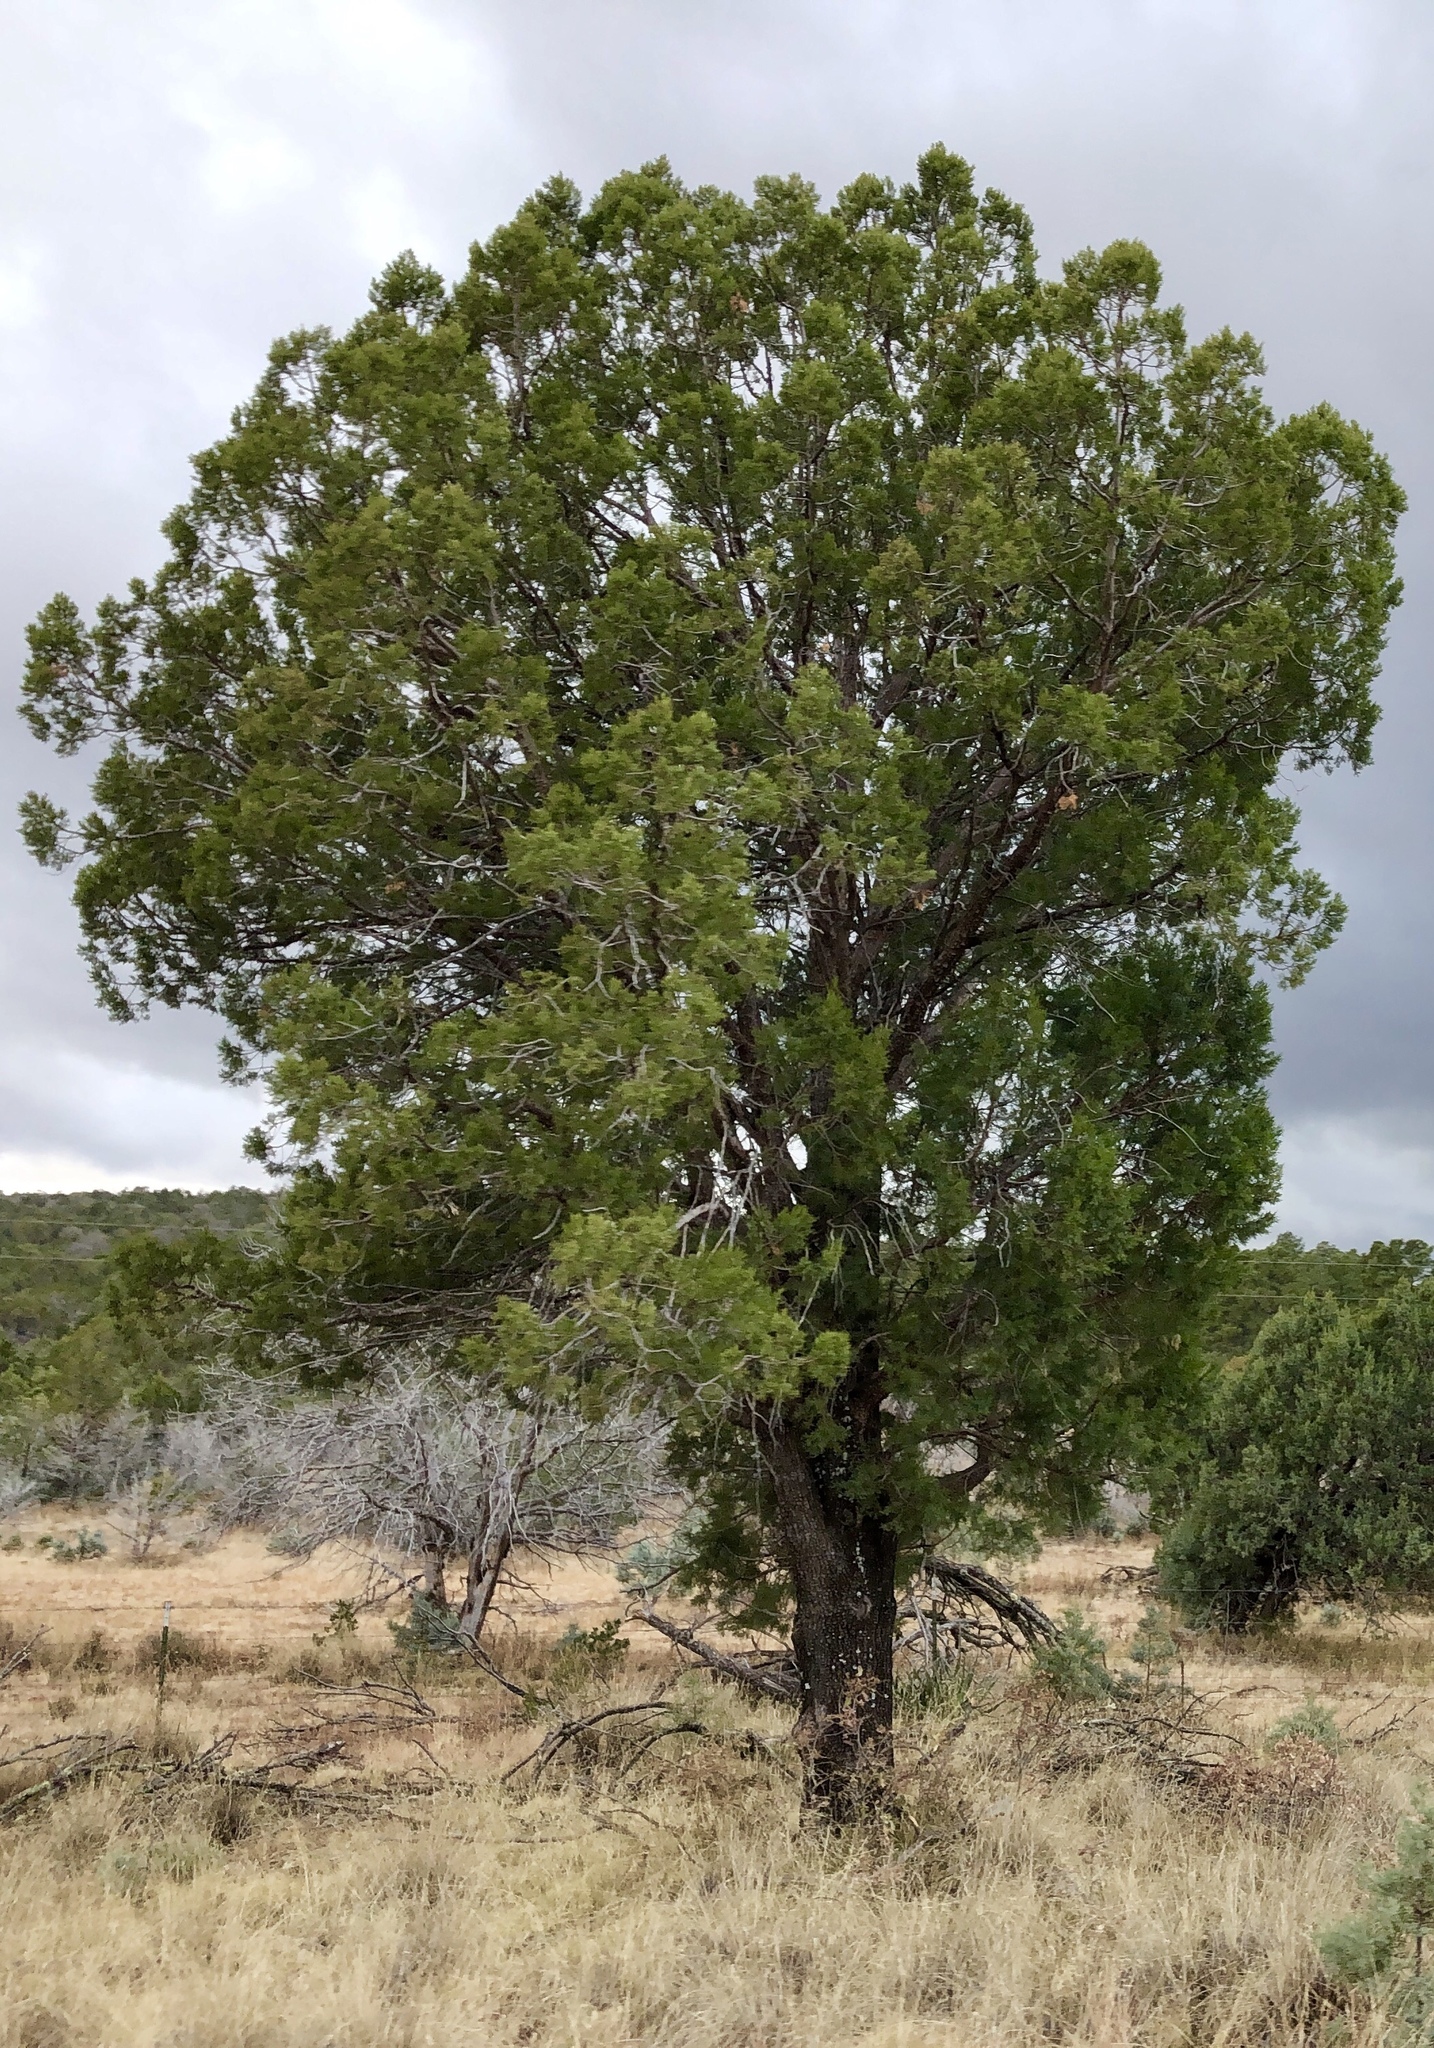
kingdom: Plantae
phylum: Tracheophyta
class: Pinopsida
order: Pinales
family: Cupressaceae
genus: Juniperus
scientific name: Juniperus deppeana
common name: Alligator juniper
